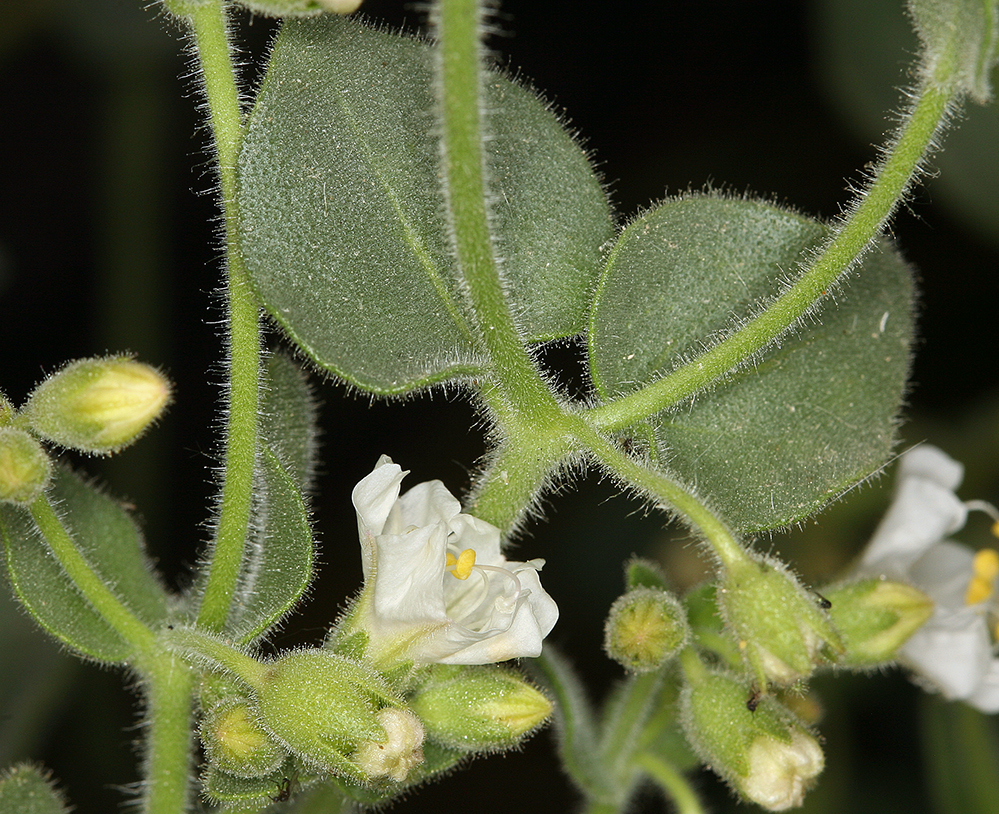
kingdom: Plantae
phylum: Tracheophyta
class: Magnoliopsida
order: Caryophyllales
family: Nyctaginaceae
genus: Mirabilis
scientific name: Mirabilis laevis
